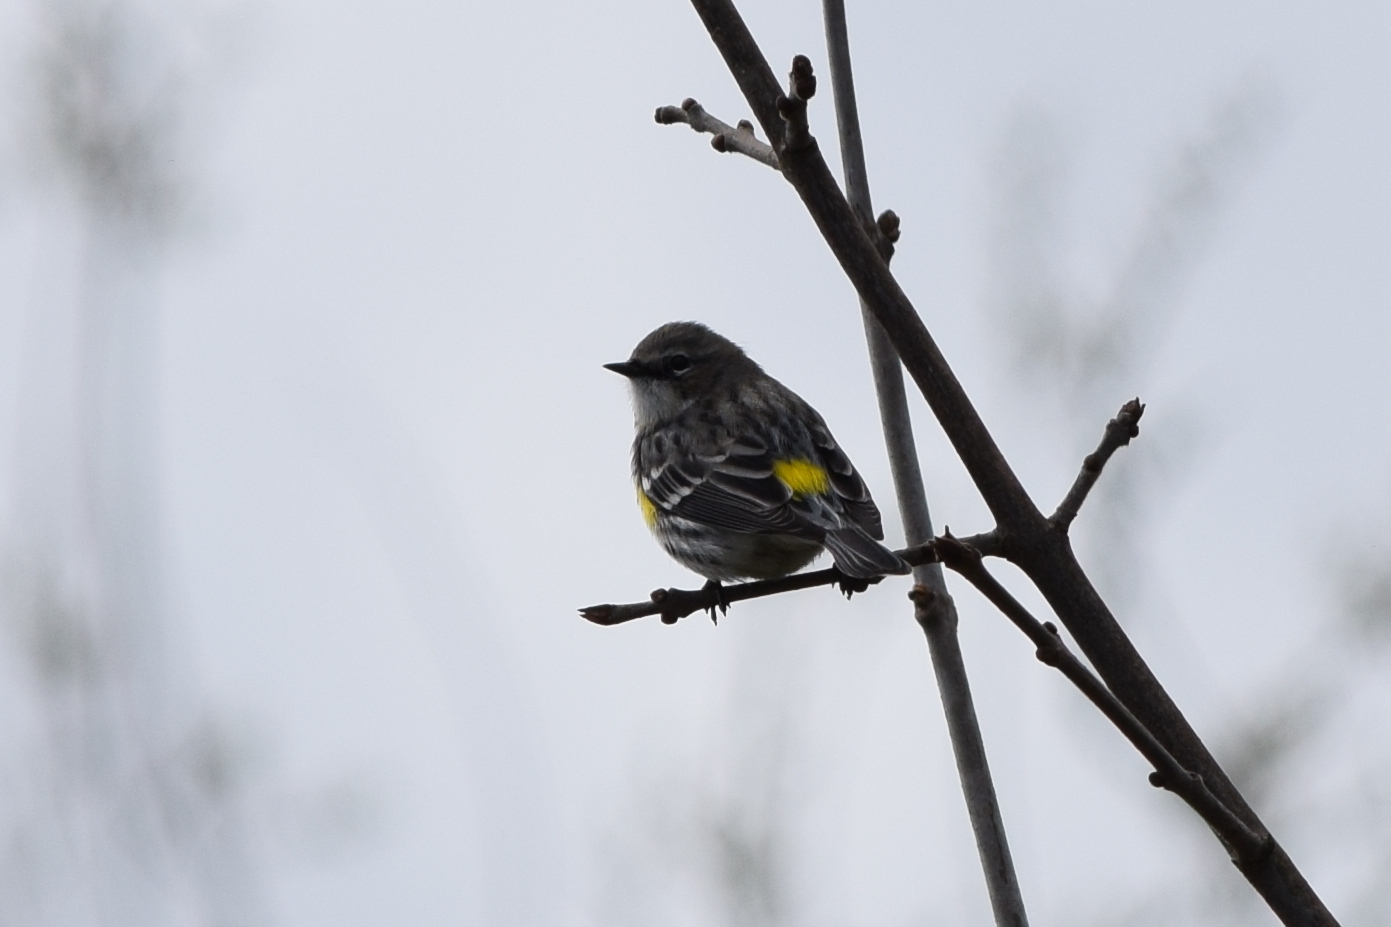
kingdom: Animalia
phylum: Chordata
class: Aves
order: Passeriformes
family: Parulidae
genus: Setophaga
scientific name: Setophaga coronata
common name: Myrtle warbler
